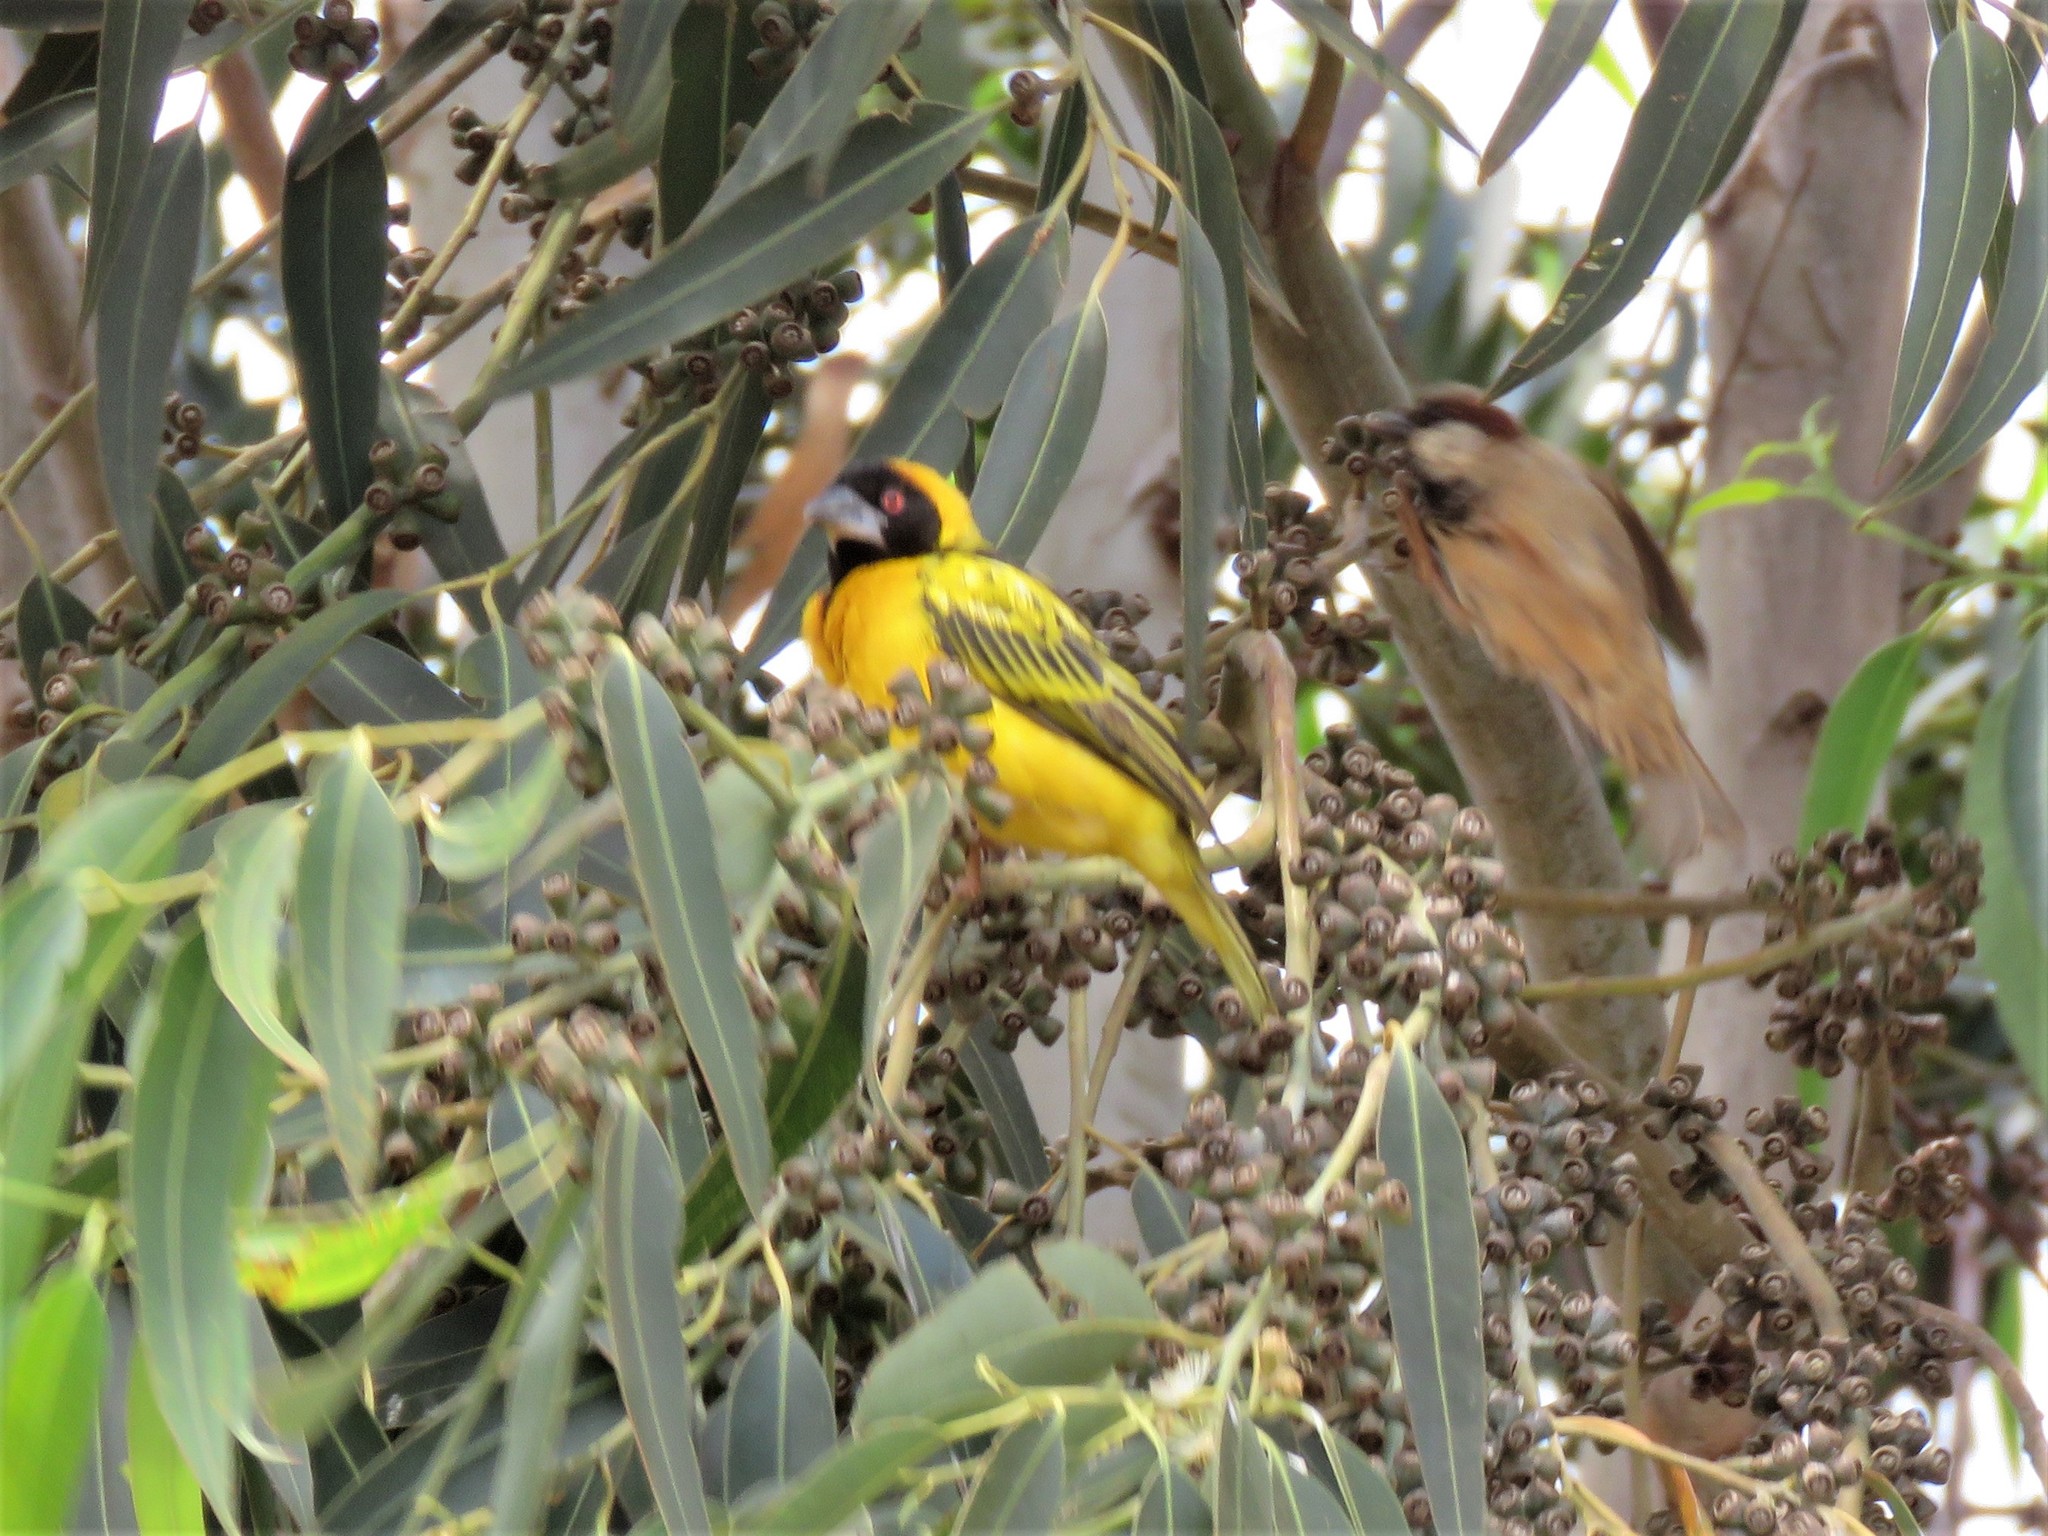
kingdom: Animalia
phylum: Chordata
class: Aves
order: Passeriformes
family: Ploceidae
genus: Ploceus
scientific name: Ploceus cucullatus
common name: Village weaver
